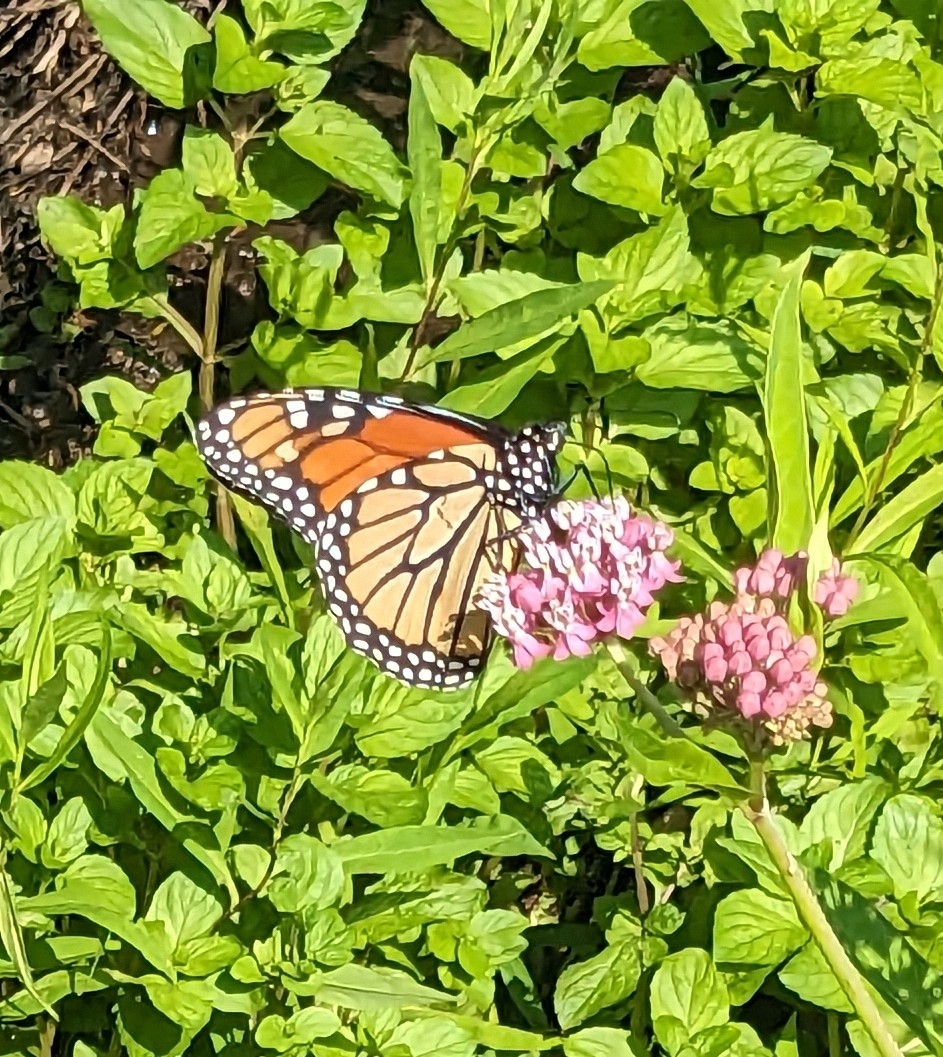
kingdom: Animalia
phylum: Arthropoda
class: Insecta
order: Lepidoptera
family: Nymphalidae
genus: Danaus
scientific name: Danaus plexippus
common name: Monarch
